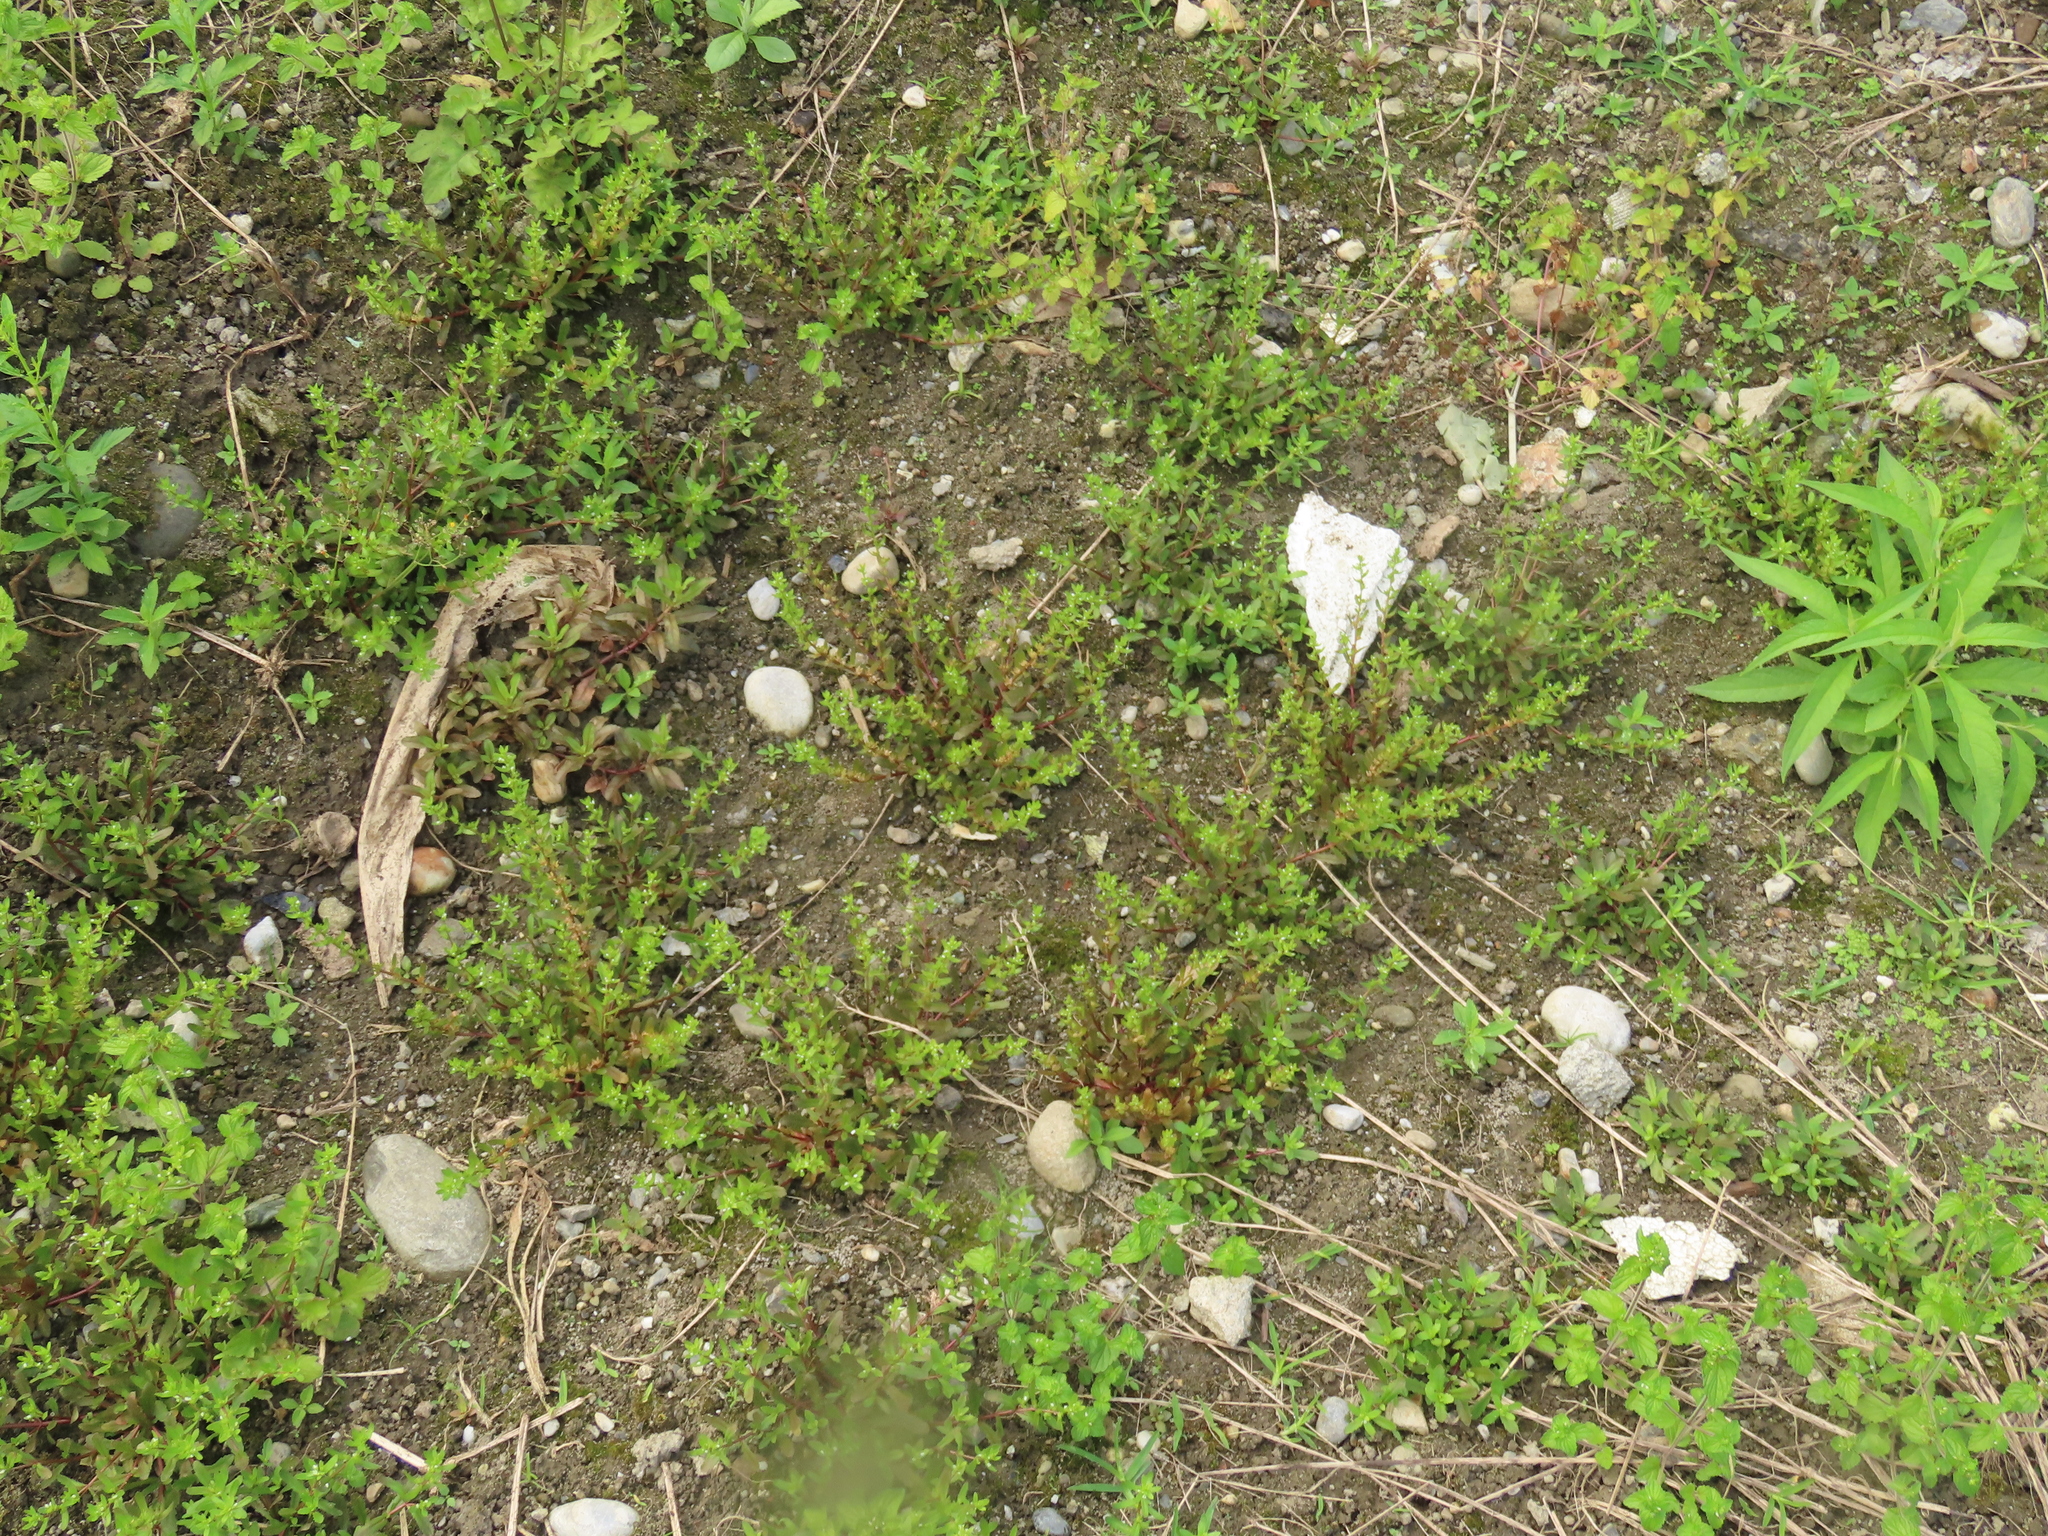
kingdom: Plantae
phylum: Tracheophyta
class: Magnoliopsida
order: Lamiales
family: Plantaginaceae
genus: Veronica
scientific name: Veronica peregrina
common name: Neckweed
